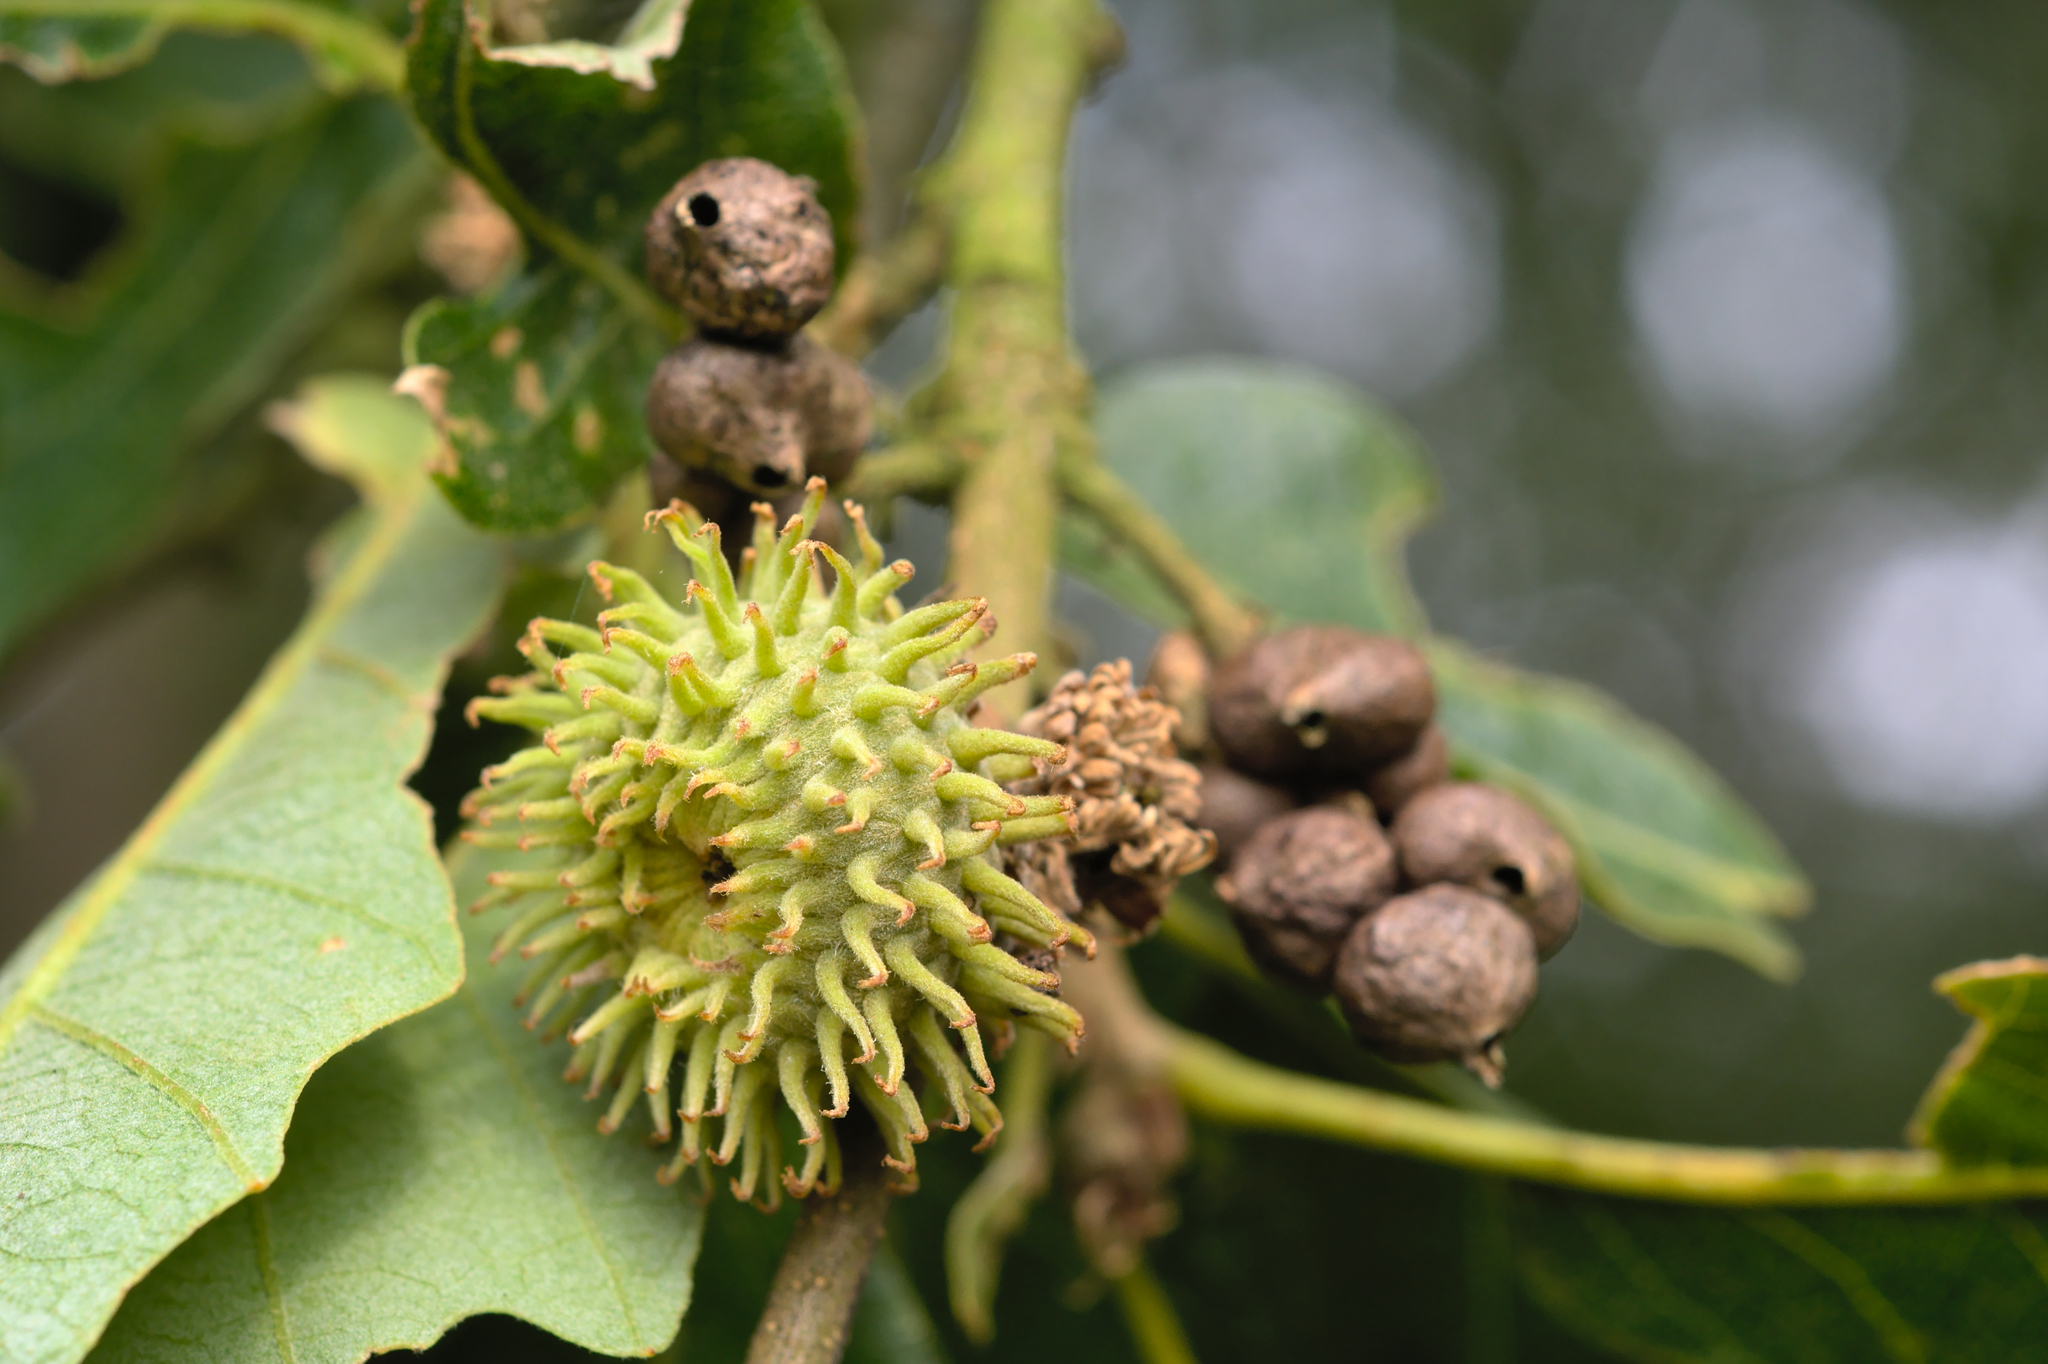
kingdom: Plantae
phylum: Tracheophyta
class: Magnoliopsida
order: Fagales
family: Fagaceae
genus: Quercus
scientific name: Quercus cerris
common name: Turkey oak
